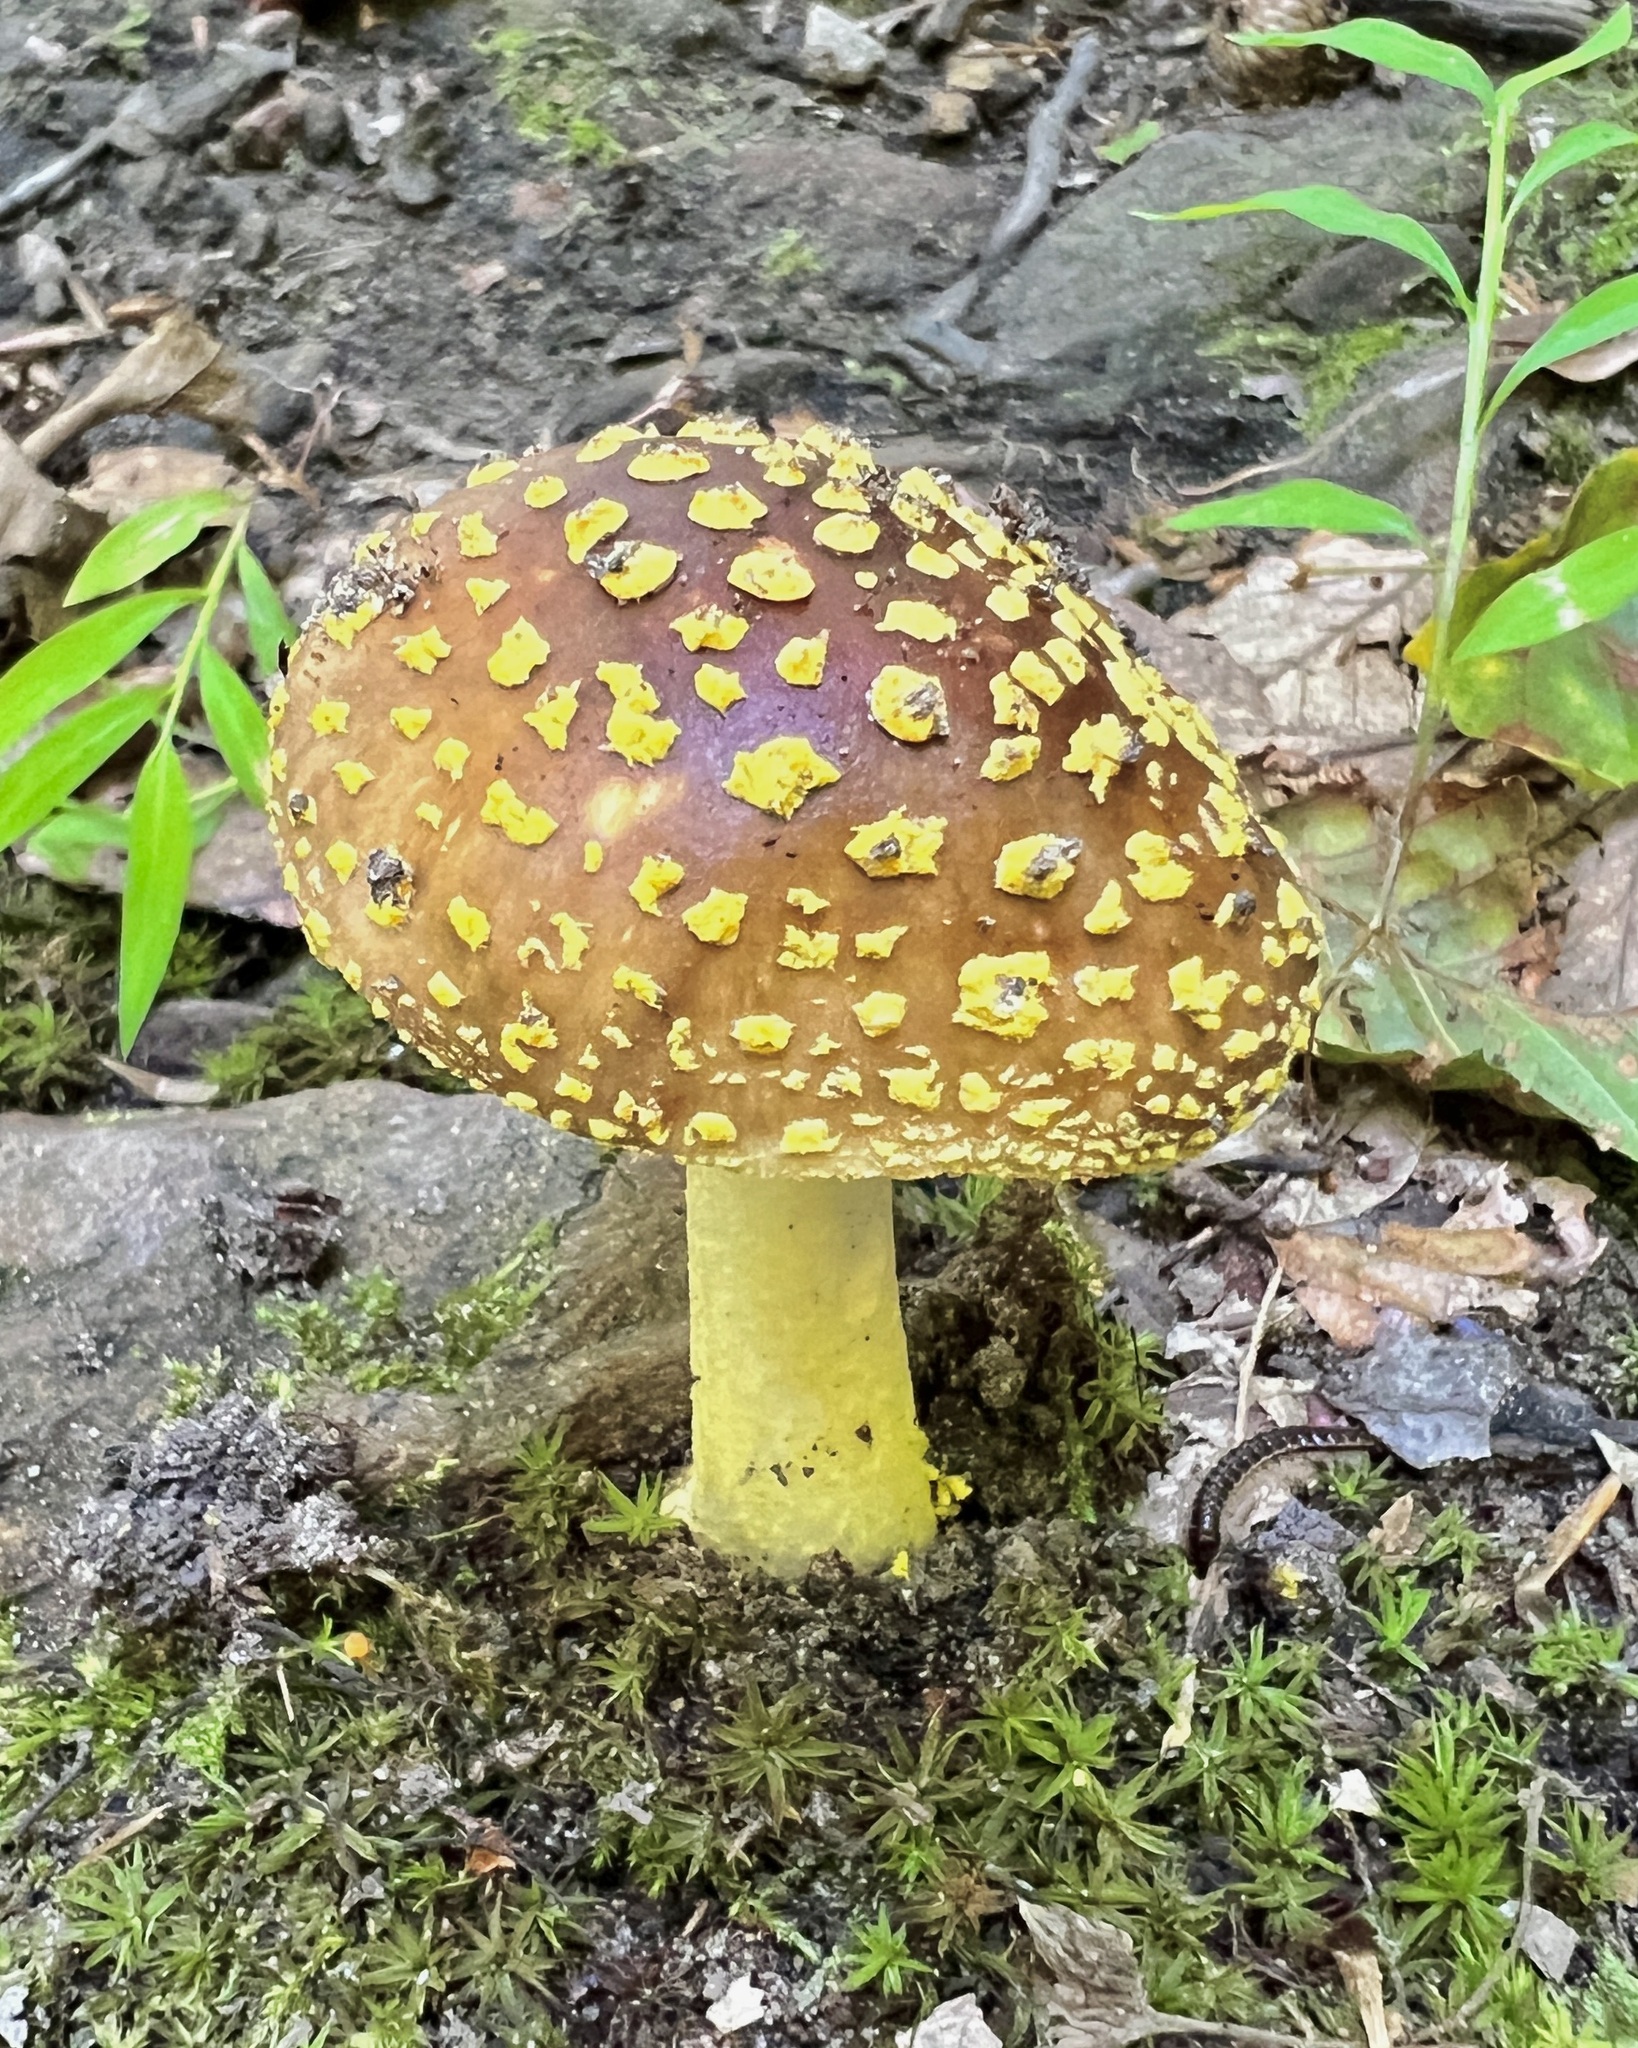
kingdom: Fungi
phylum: Basidiomycota
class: Agaricomycetes
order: Agaricales
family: Amanitaceae
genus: Amanita
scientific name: Amanita flavorubens
